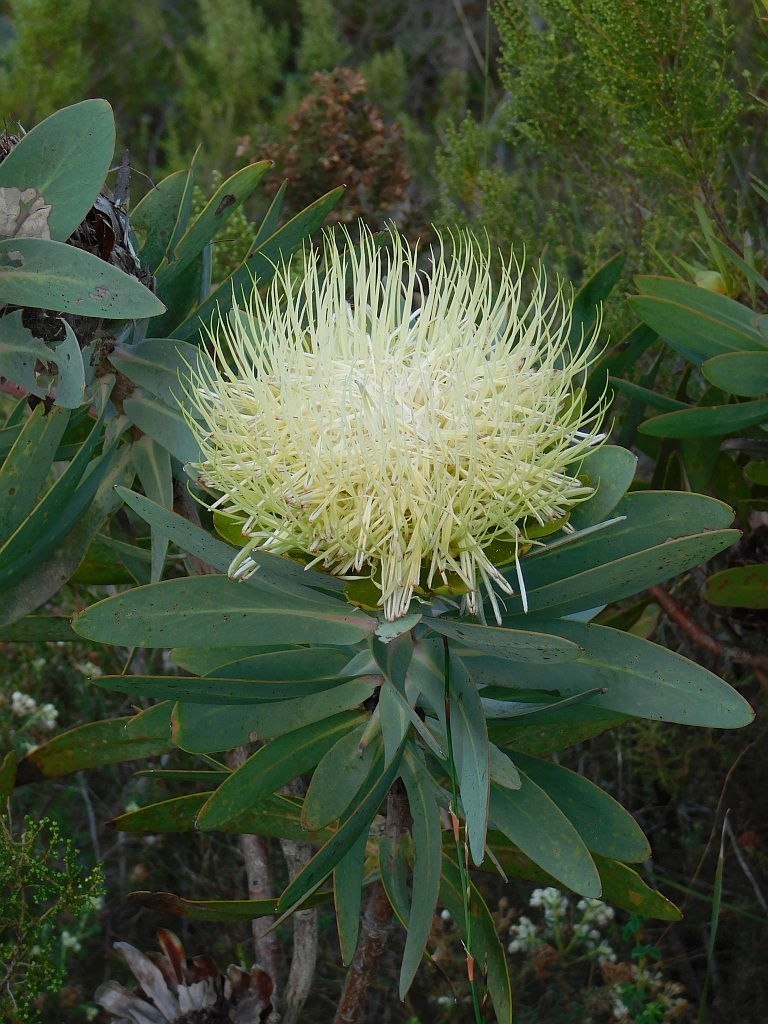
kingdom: Plantae
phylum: Tracheophyta
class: Magnoliopsida
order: Proteales
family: Proteaceae
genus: Protea
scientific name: Protea nitida
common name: Tree protea
